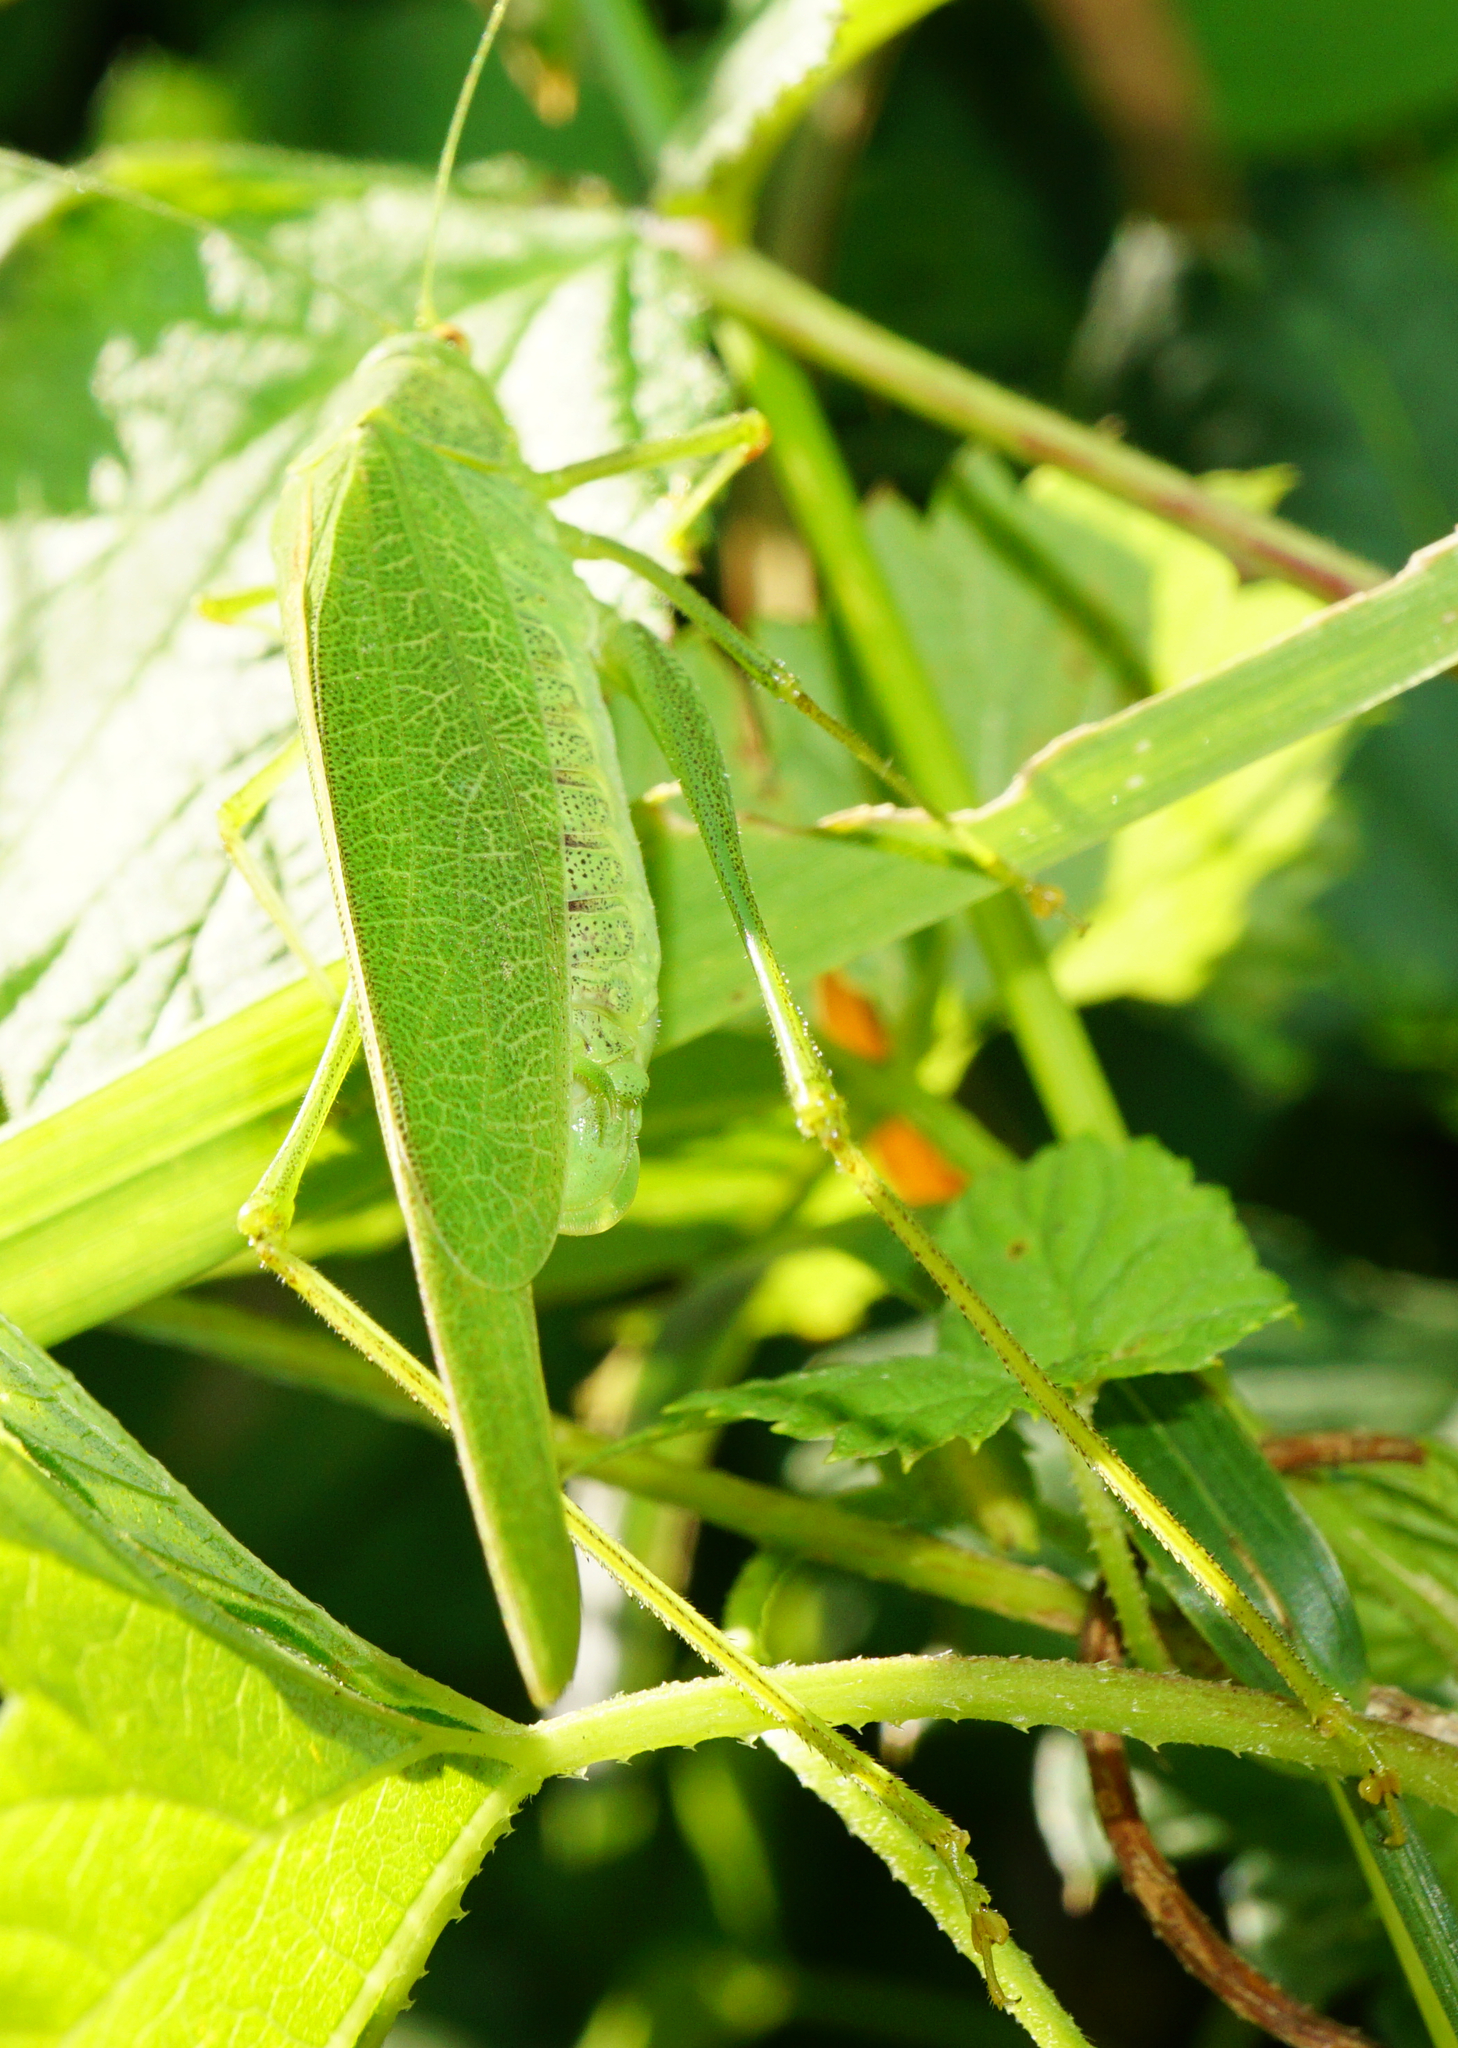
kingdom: Animalia
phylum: Arthropoda
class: Insecta
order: Orthoptera
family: Tettigoniidae
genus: Phaneroptera
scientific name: Phaneroptera nana
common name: Southern sickle bush-cricket
